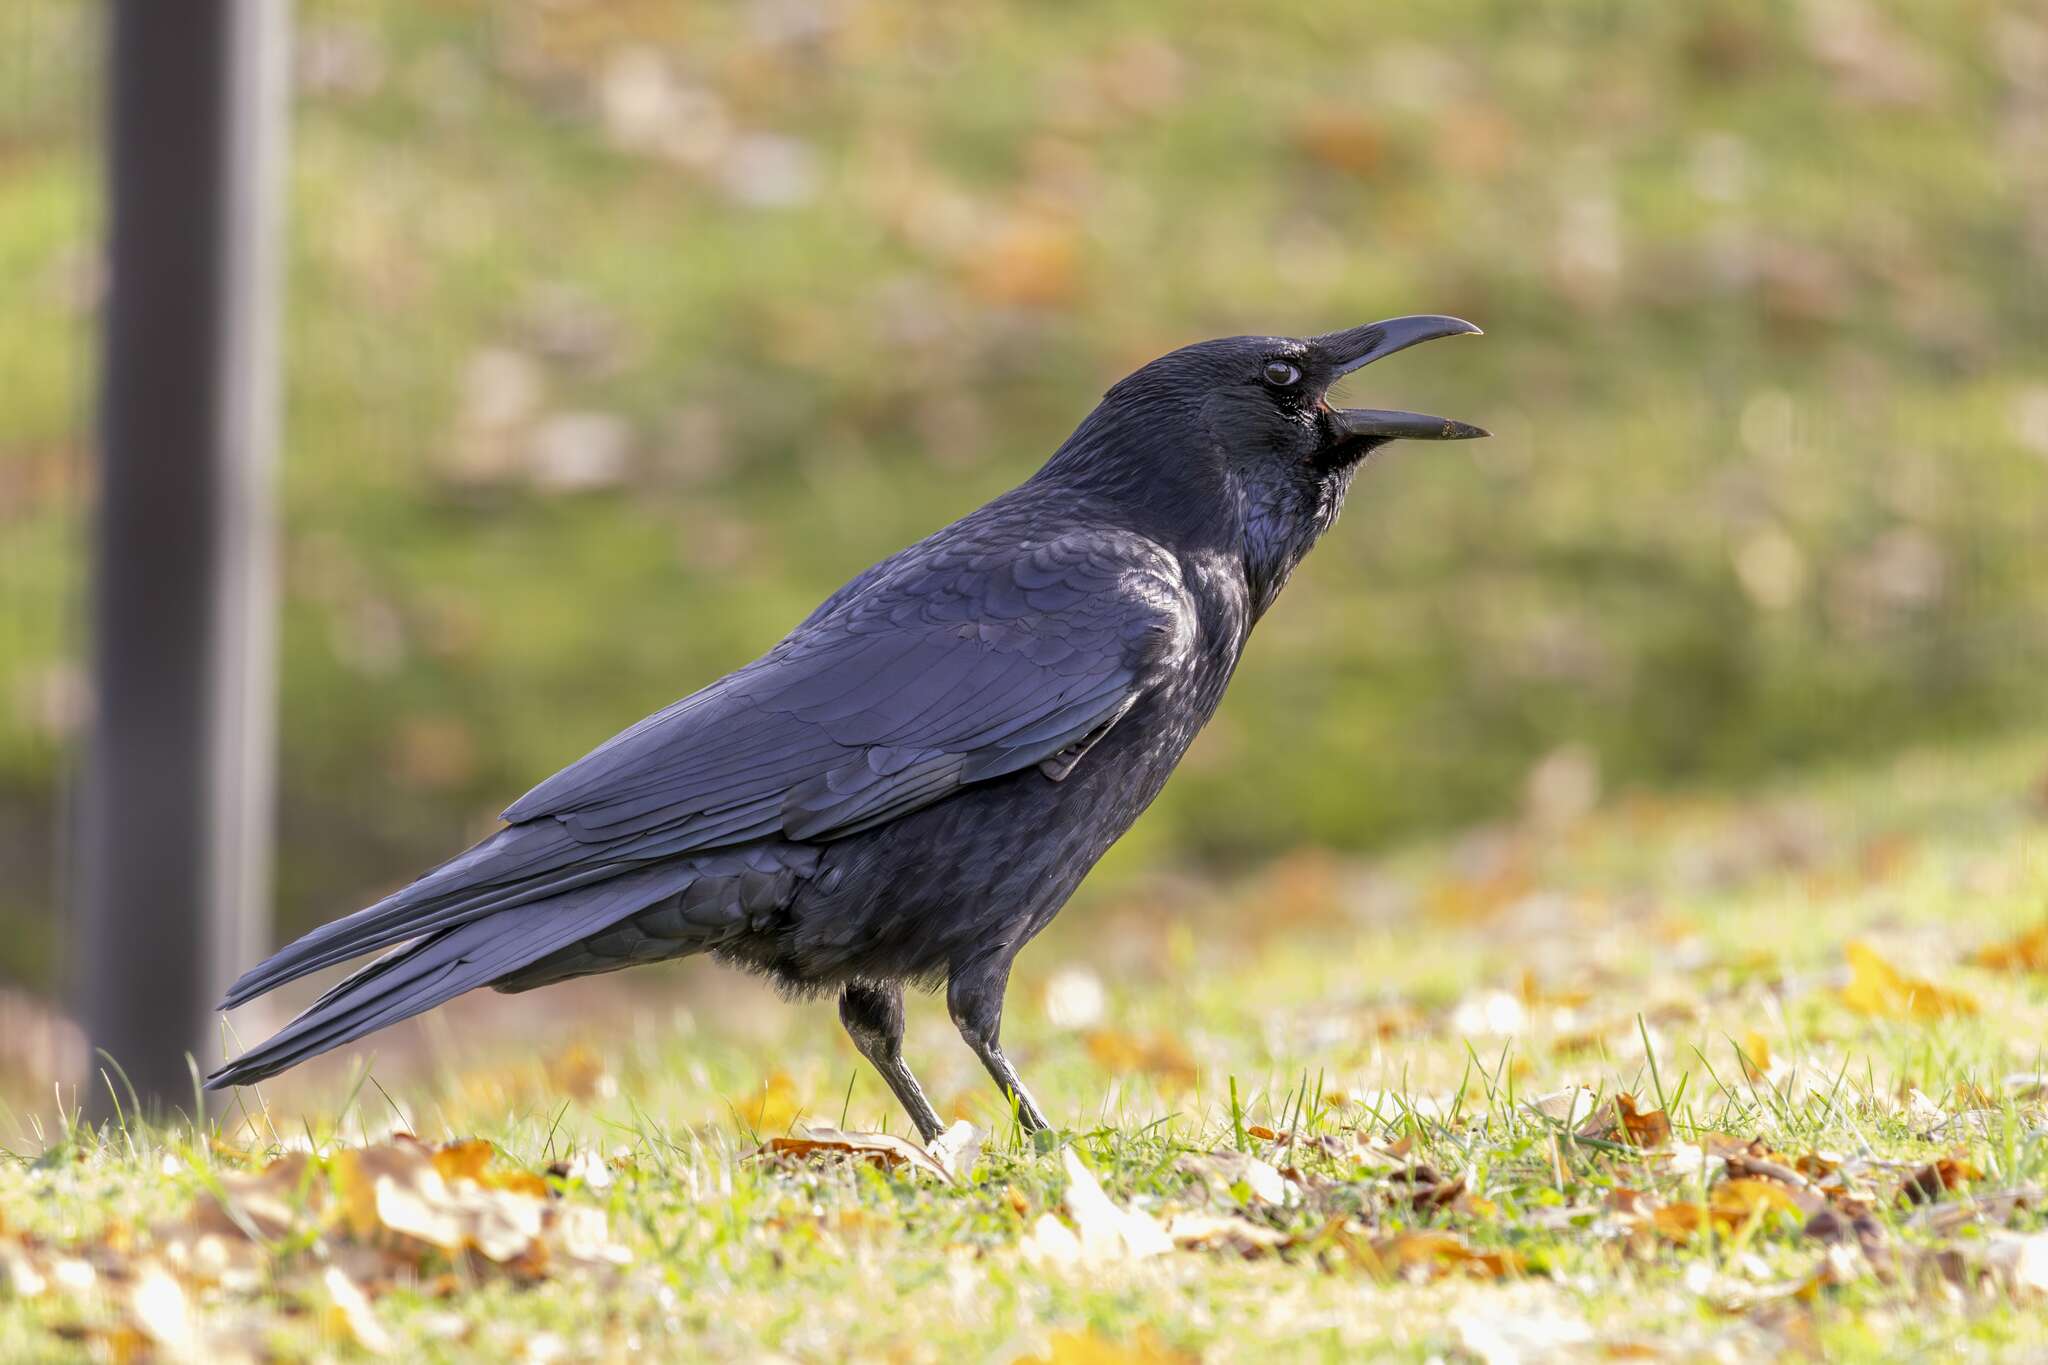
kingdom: Animalia
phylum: Chordata
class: Aves
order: Passeriformes
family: Corvidae
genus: Corvus
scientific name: Corvus corone
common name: Carrion crow
